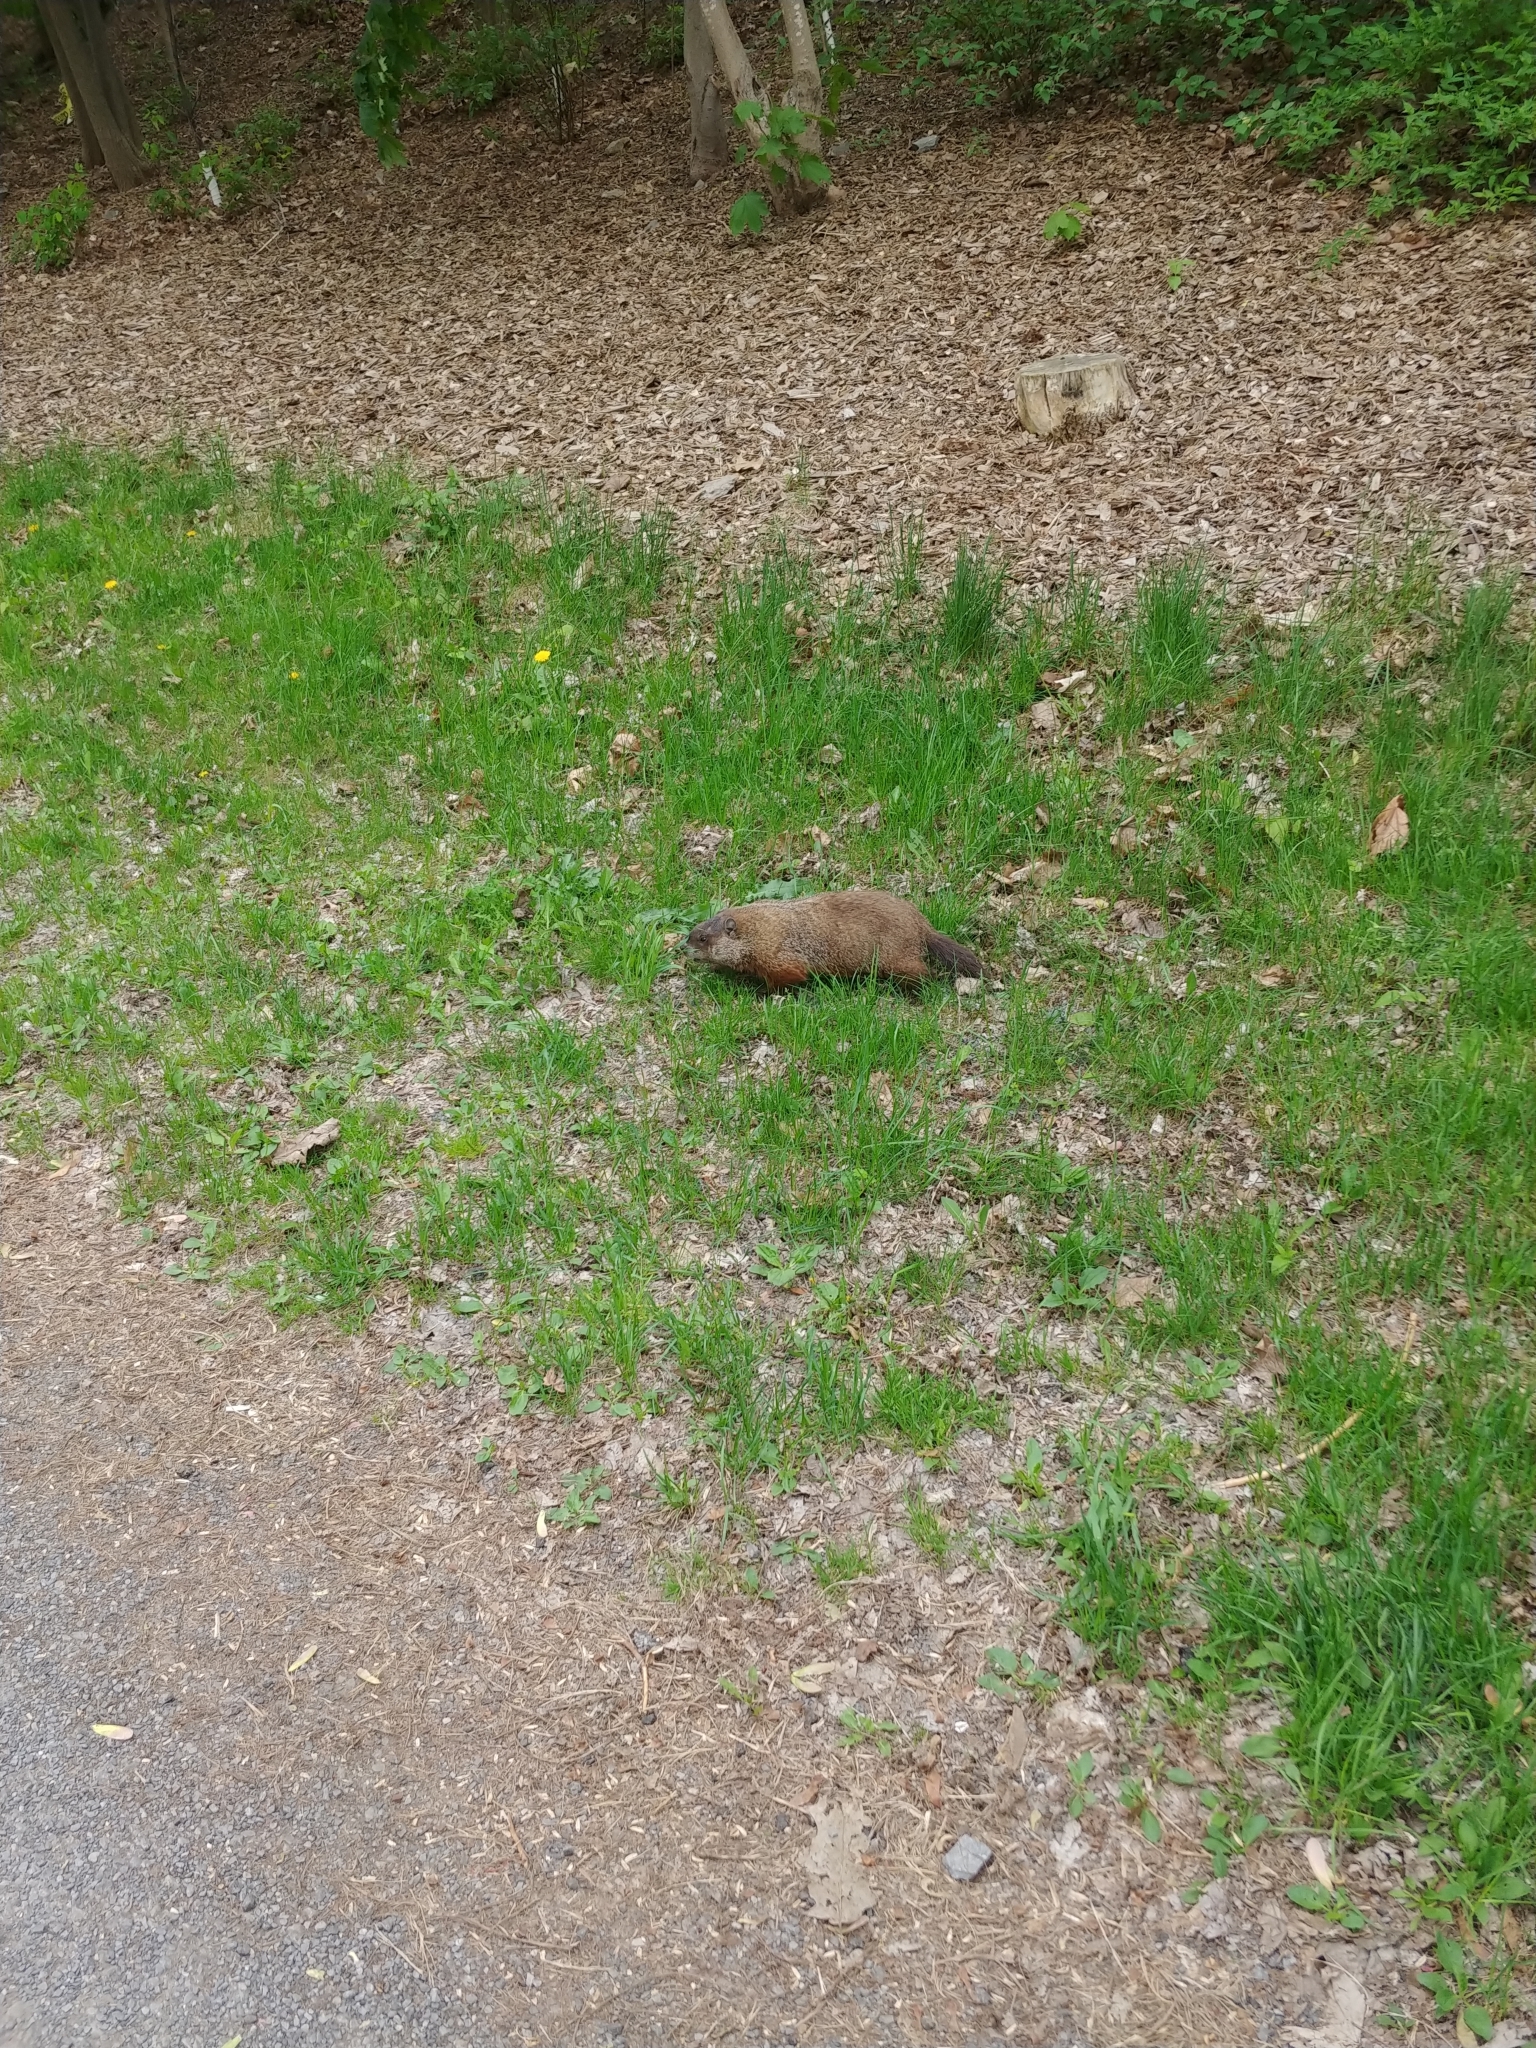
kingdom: Animalia
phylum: Chordata
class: Mammalia
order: Rodentia
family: Sciuridae
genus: Marmota
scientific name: Marmota monax
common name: Groundhog
